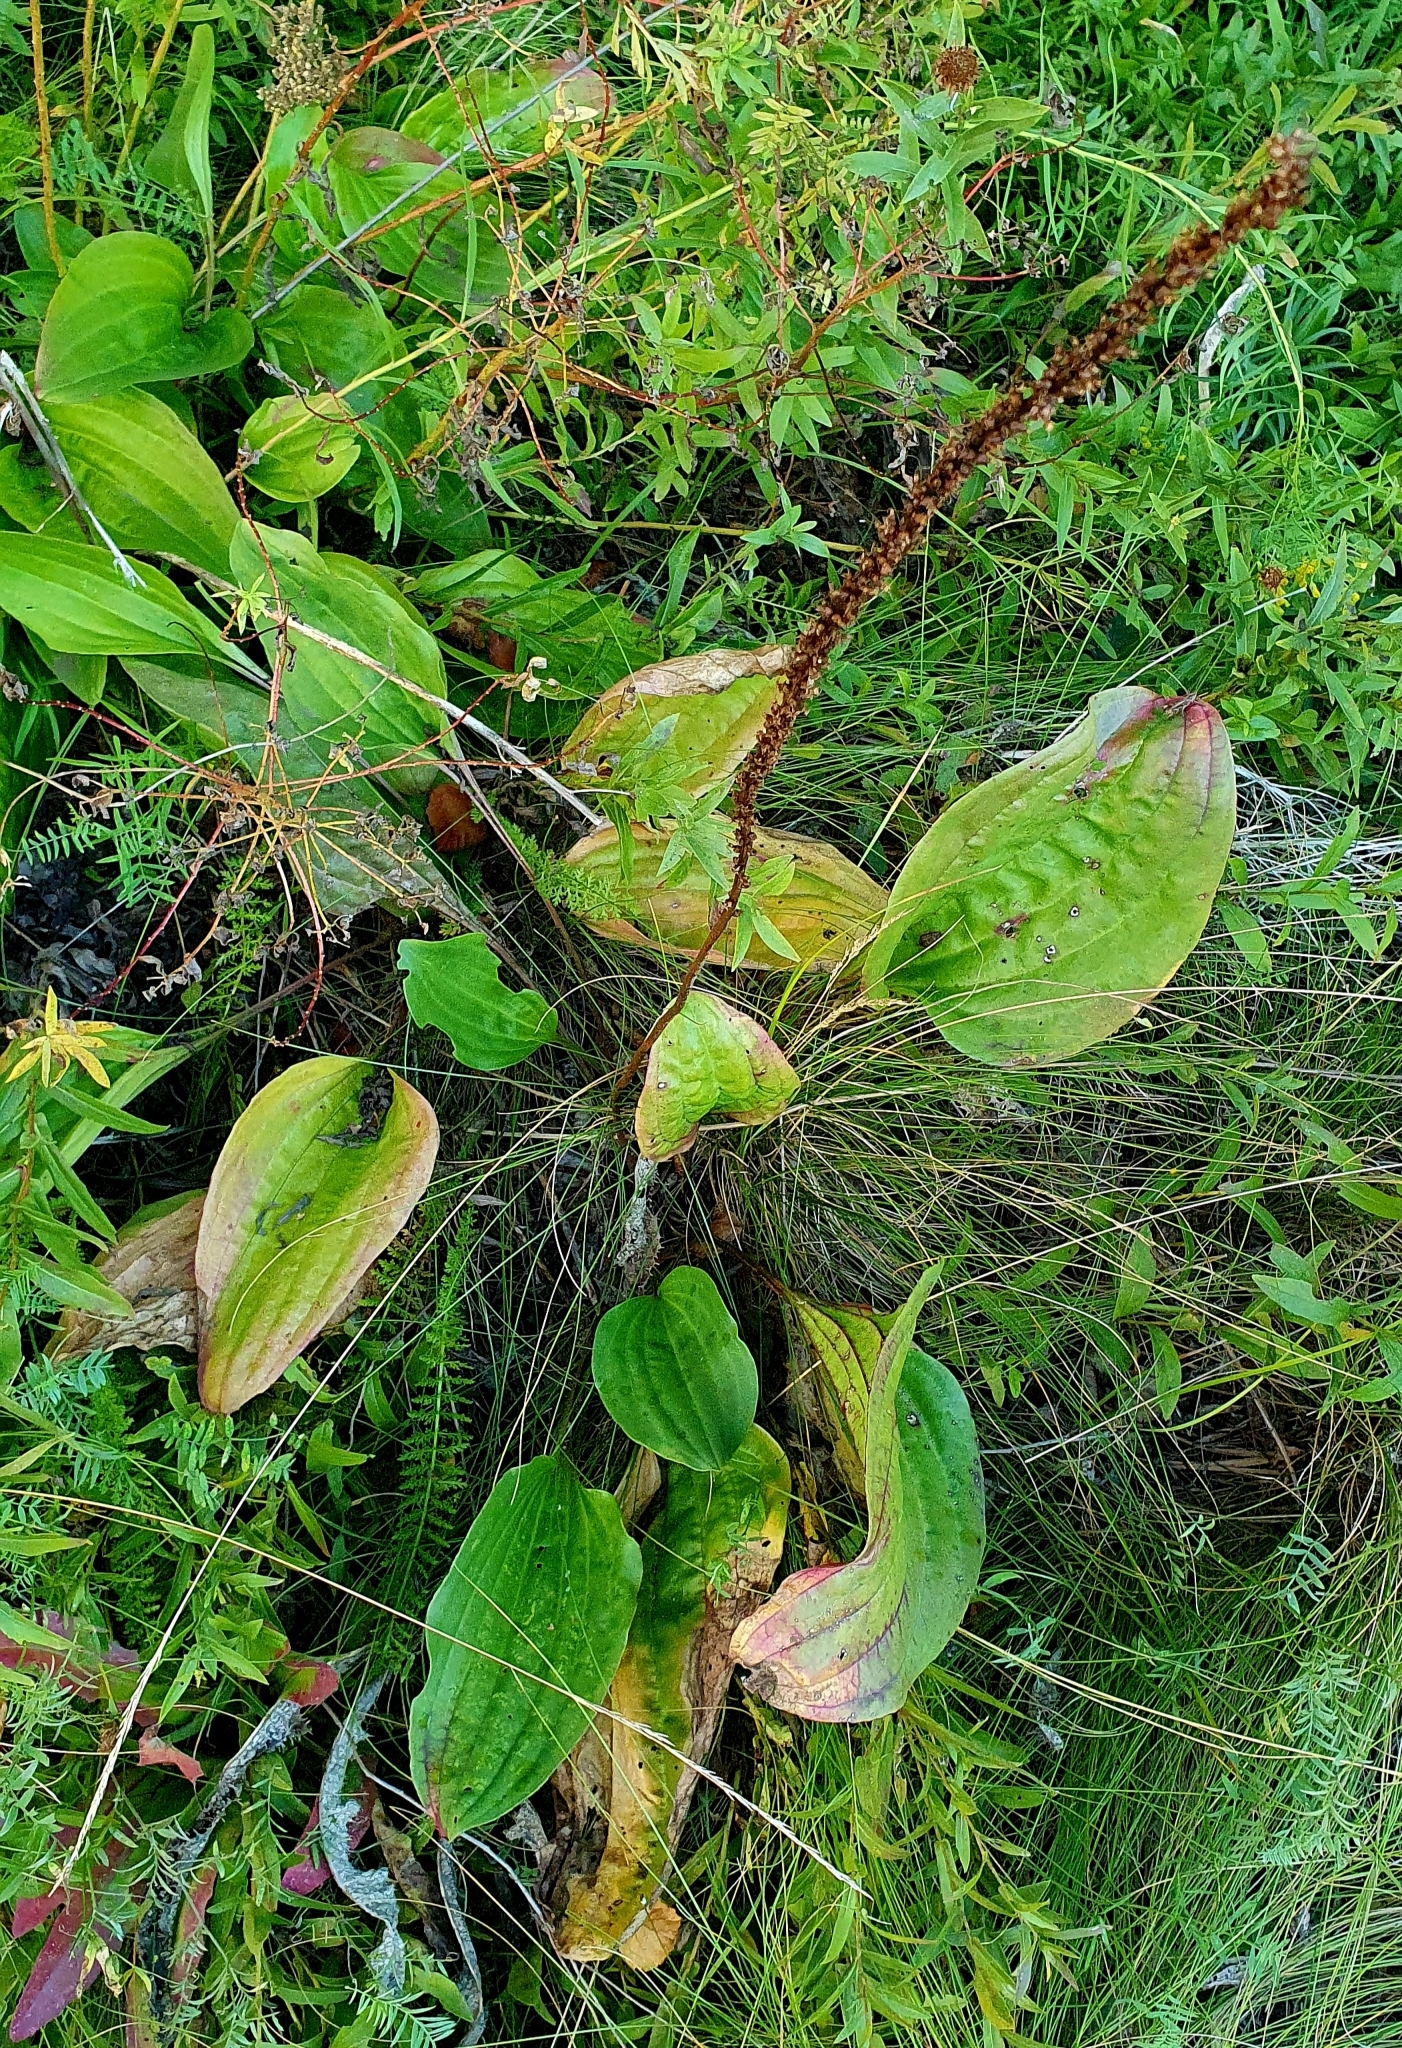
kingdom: Plantae
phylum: Tracheophyta
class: Magnoliopsida
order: Lamiales
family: Plantaginaceae
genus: Plantago
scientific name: Plantago cornuti
